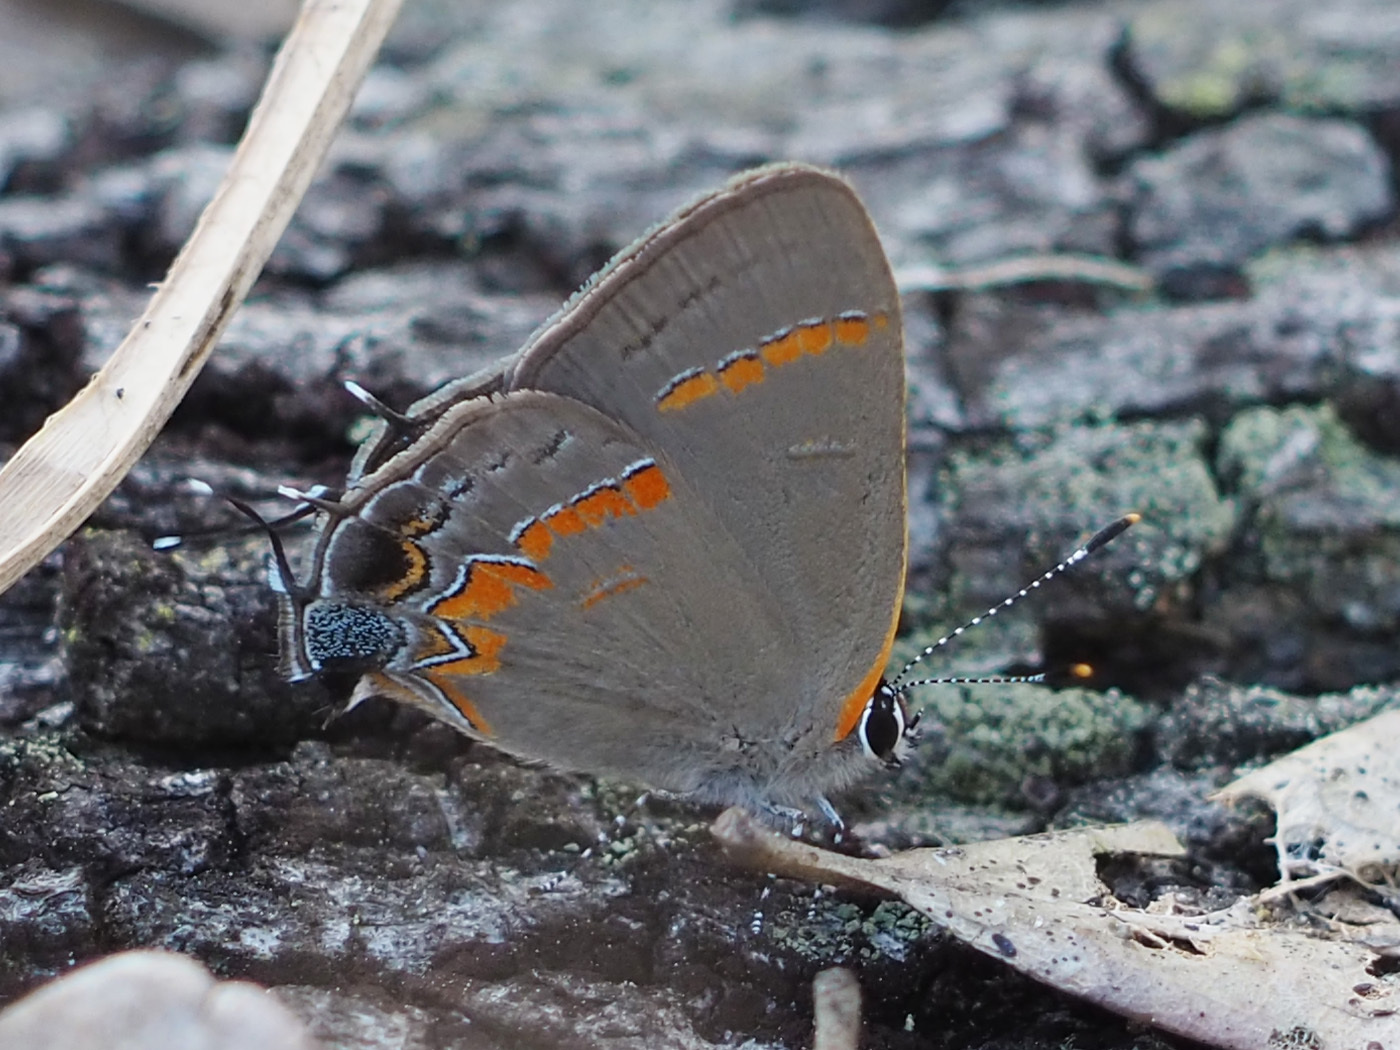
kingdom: Animalia
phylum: Arthropoda
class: Insecta
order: Lepidoptera
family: Lycaenidae
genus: Calycopis
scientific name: Calycopis cecrops
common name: Red-banded hairstreak
